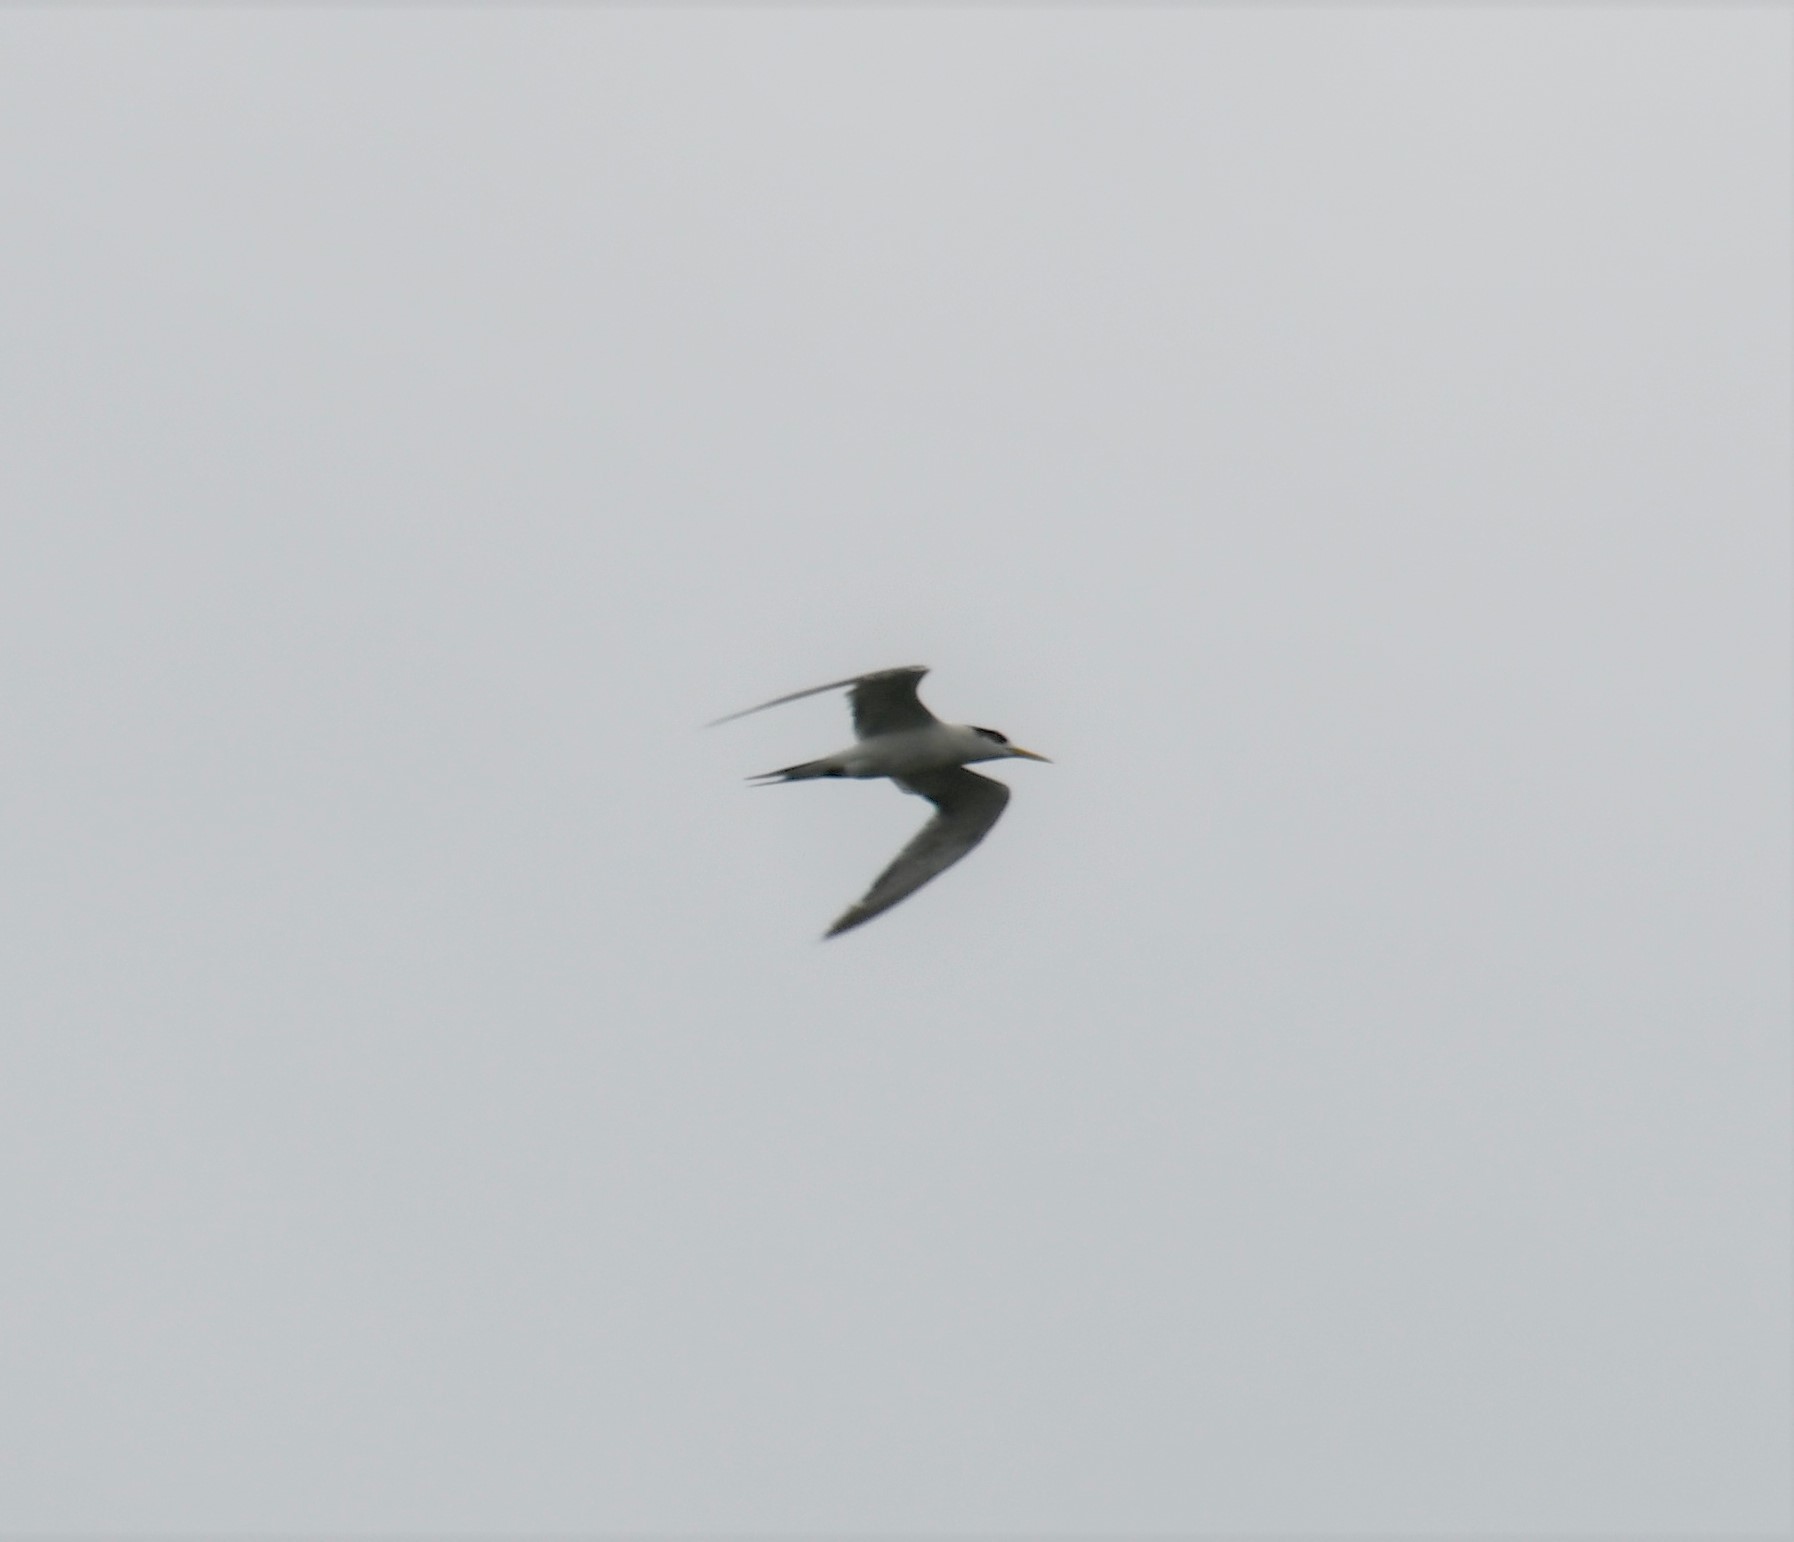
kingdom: Animalia
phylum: Chordata
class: Aves
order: Charadriiformes
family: Laridae
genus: Thalasseus
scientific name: Thalasseus bergii
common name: Greater crested tern
